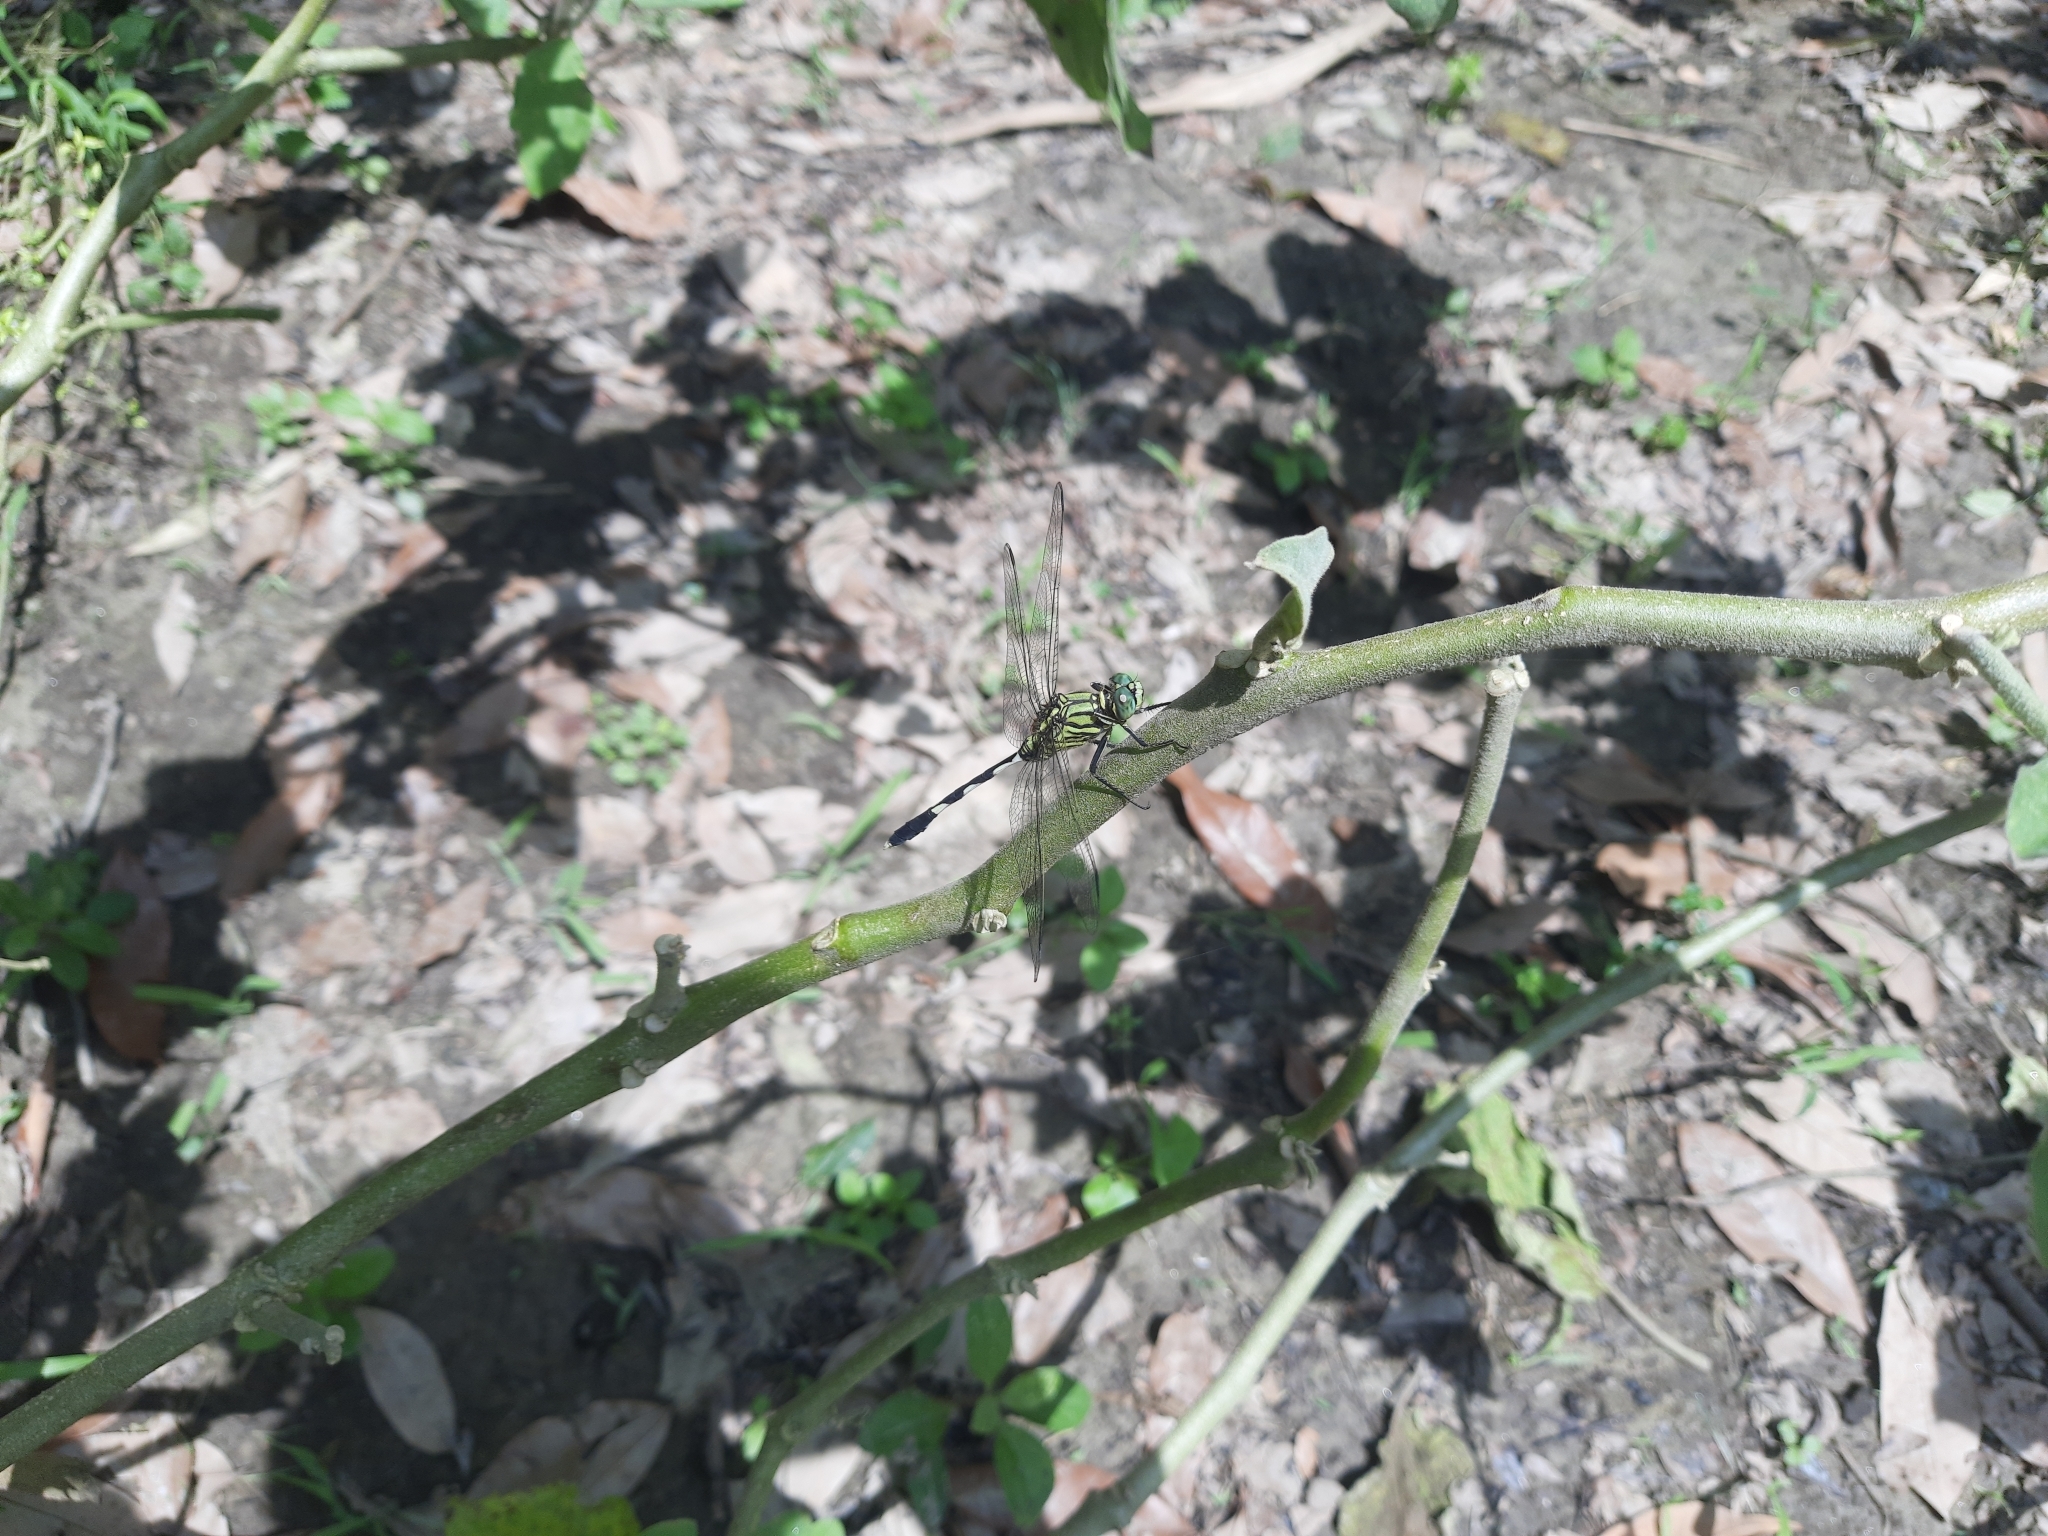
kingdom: Animalia
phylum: Arthropoda
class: Insecta
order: Odonata
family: Libellulidae
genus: Orthetrum
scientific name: Orthetrum sabina
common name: Slender skimmer
